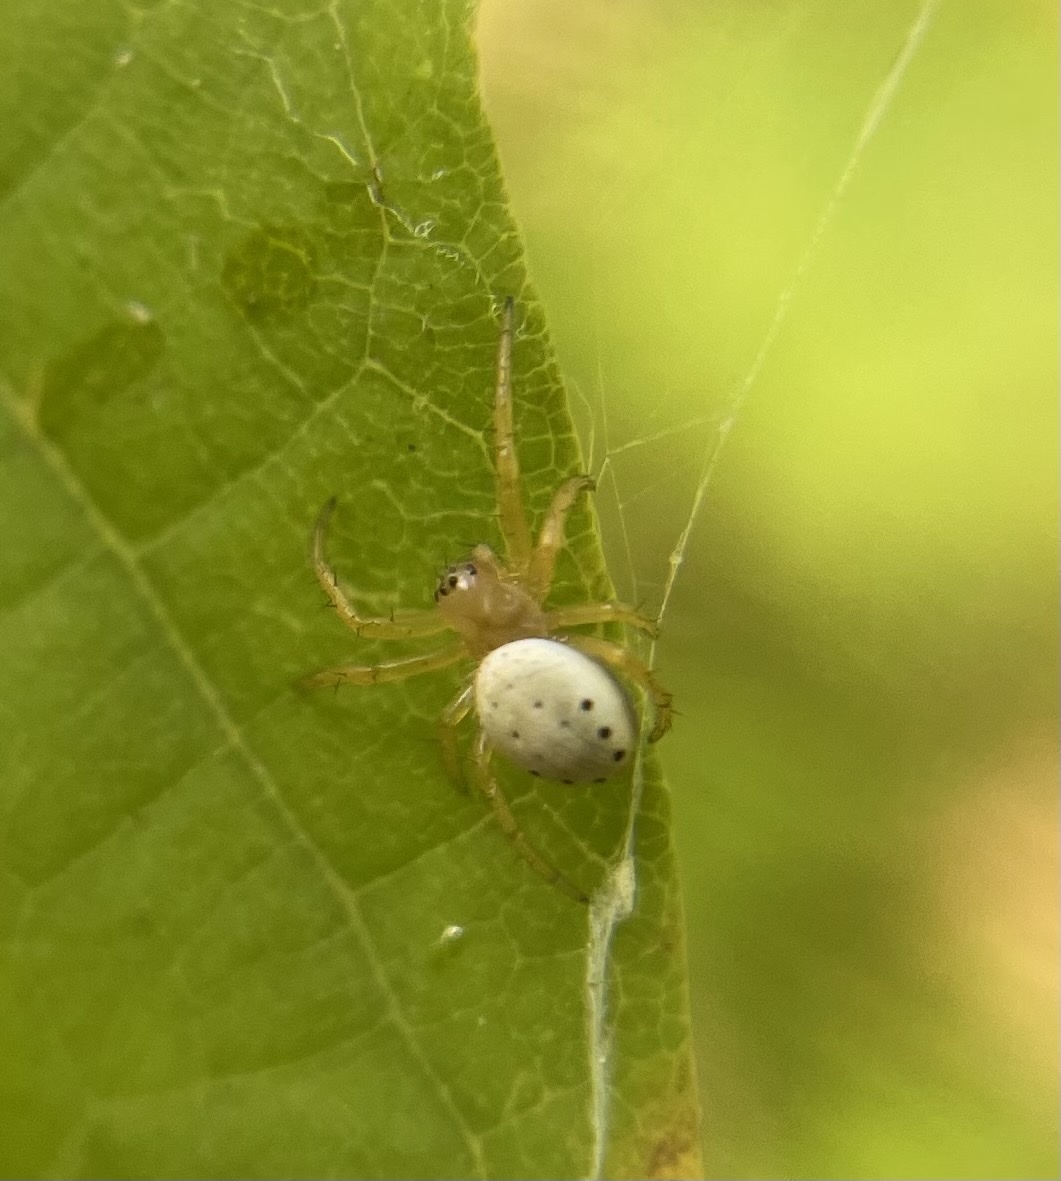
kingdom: Animalia
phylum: Arthropoda
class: Arachnida
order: Araneae
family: Araneidae
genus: Araniella
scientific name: Araniella displicata
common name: Sixspotted orb weaver
